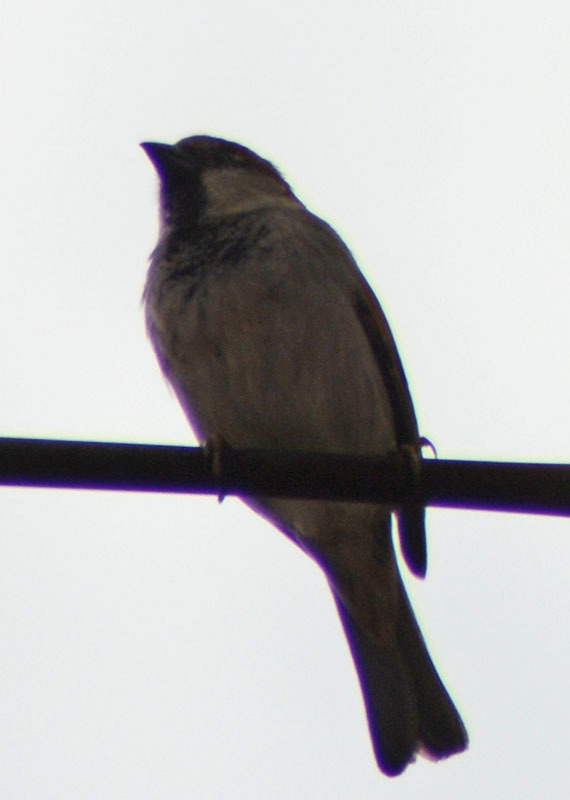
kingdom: Animalia
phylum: Chordata
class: Aves
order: Passeriformes
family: Passeridae
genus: Passer
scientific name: Passer domesticus
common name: House sparrow
